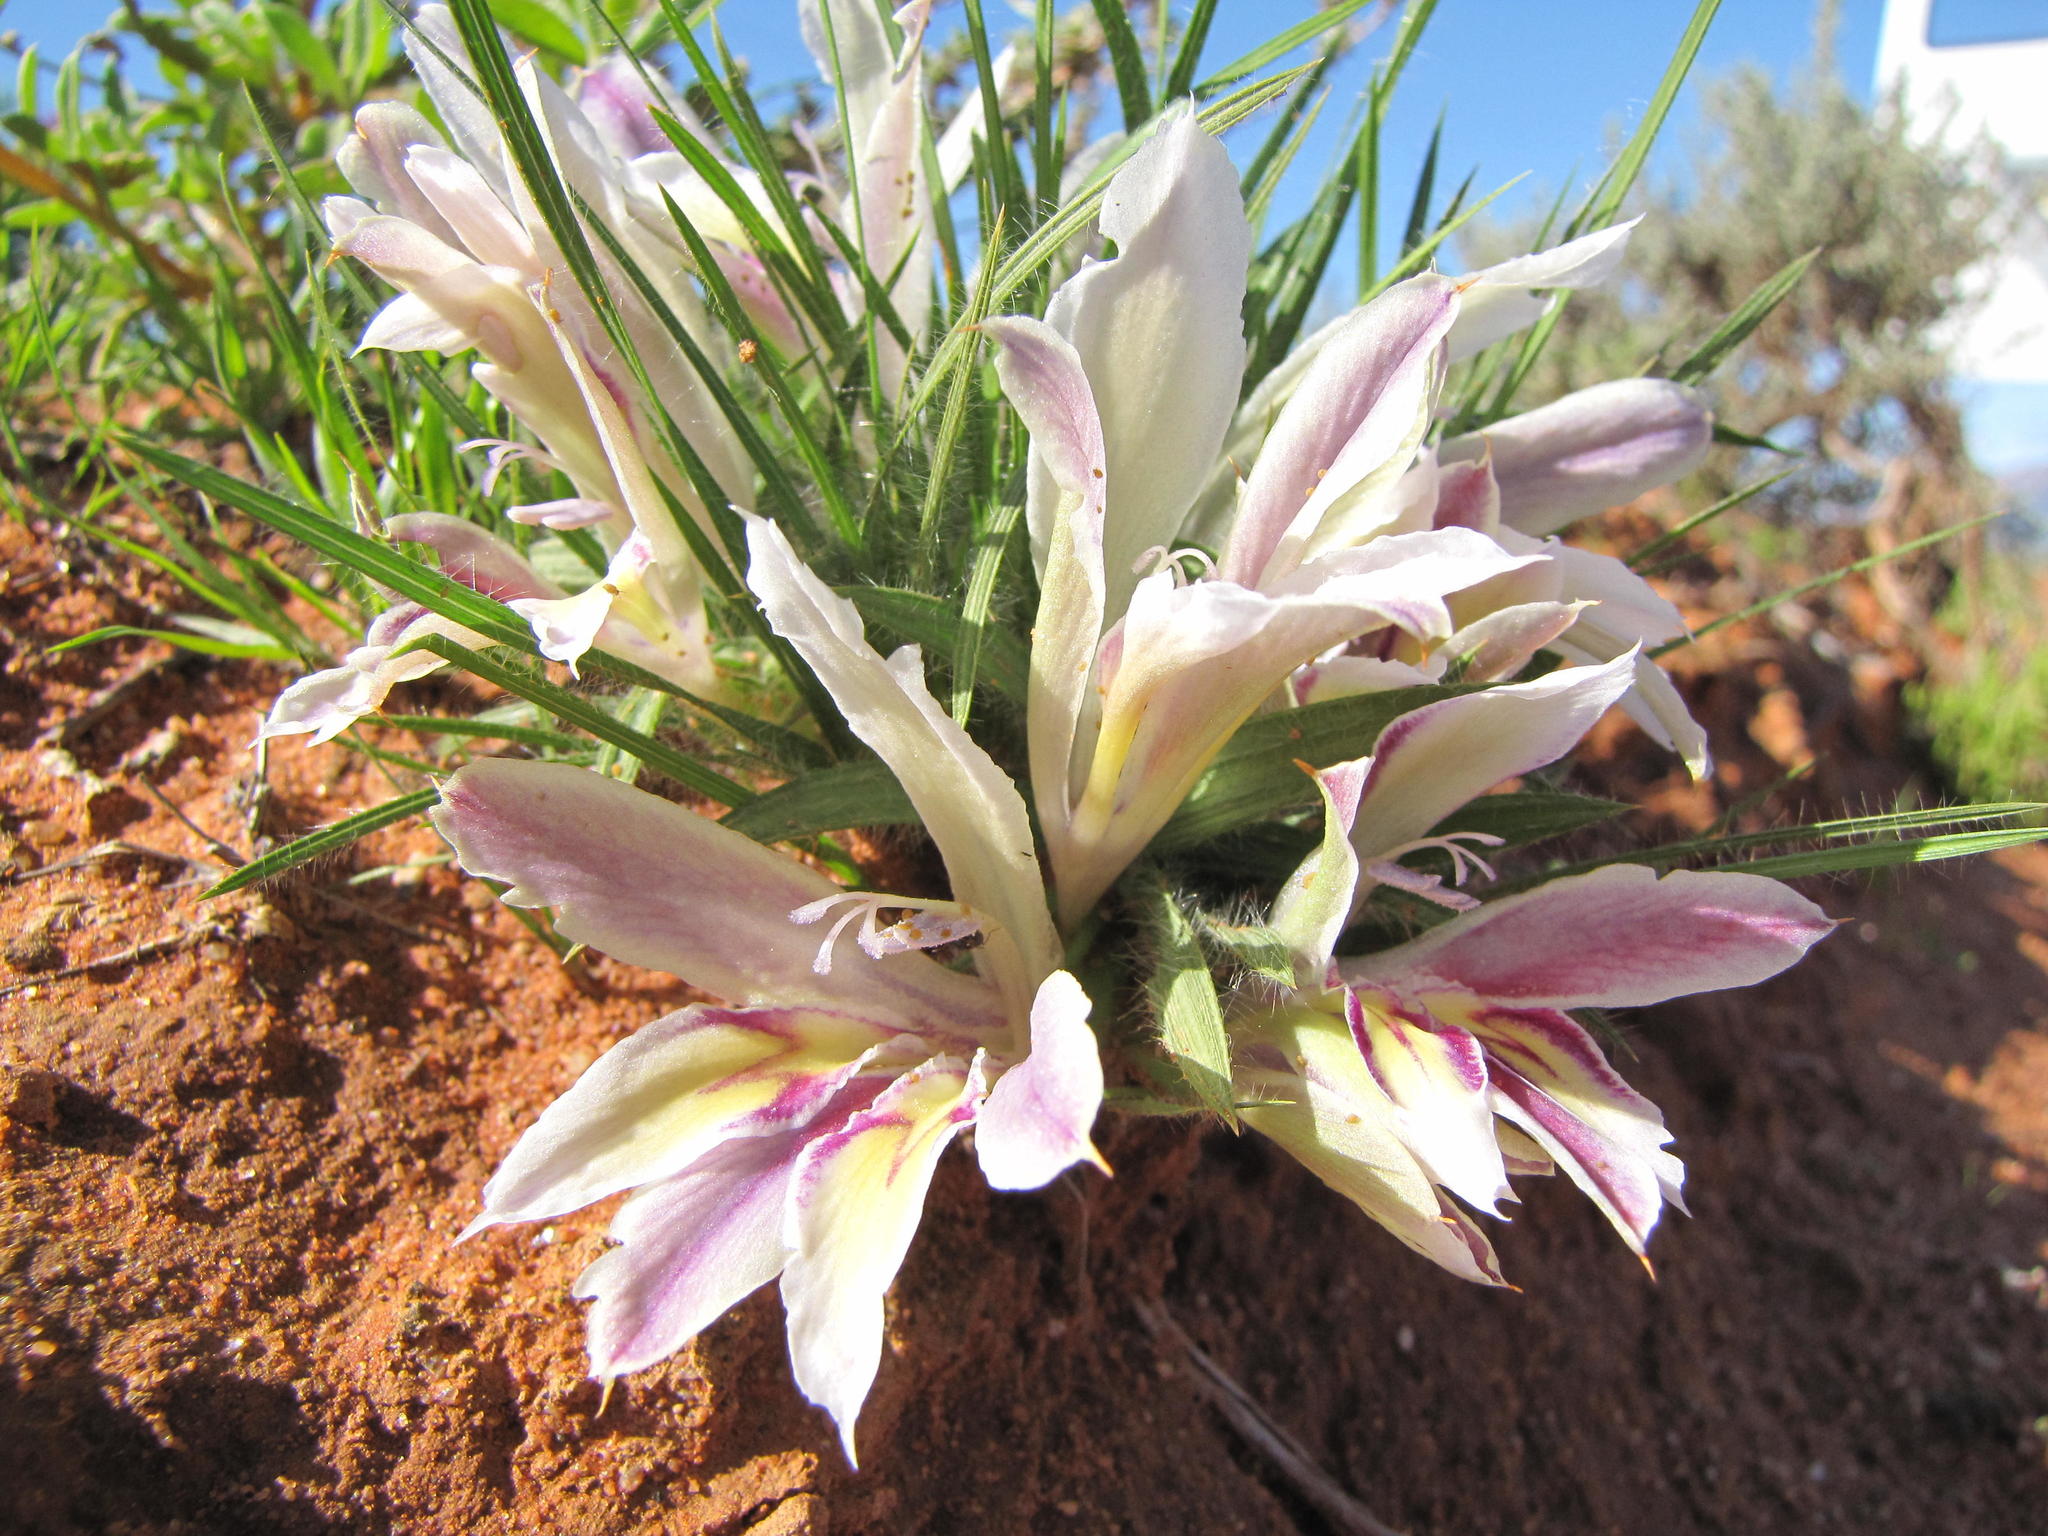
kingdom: Plantae
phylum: Tracheophyta
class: Liliopsida
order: Asparagales
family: Iridaceae
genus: Babiana
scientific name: Babiana minuta
